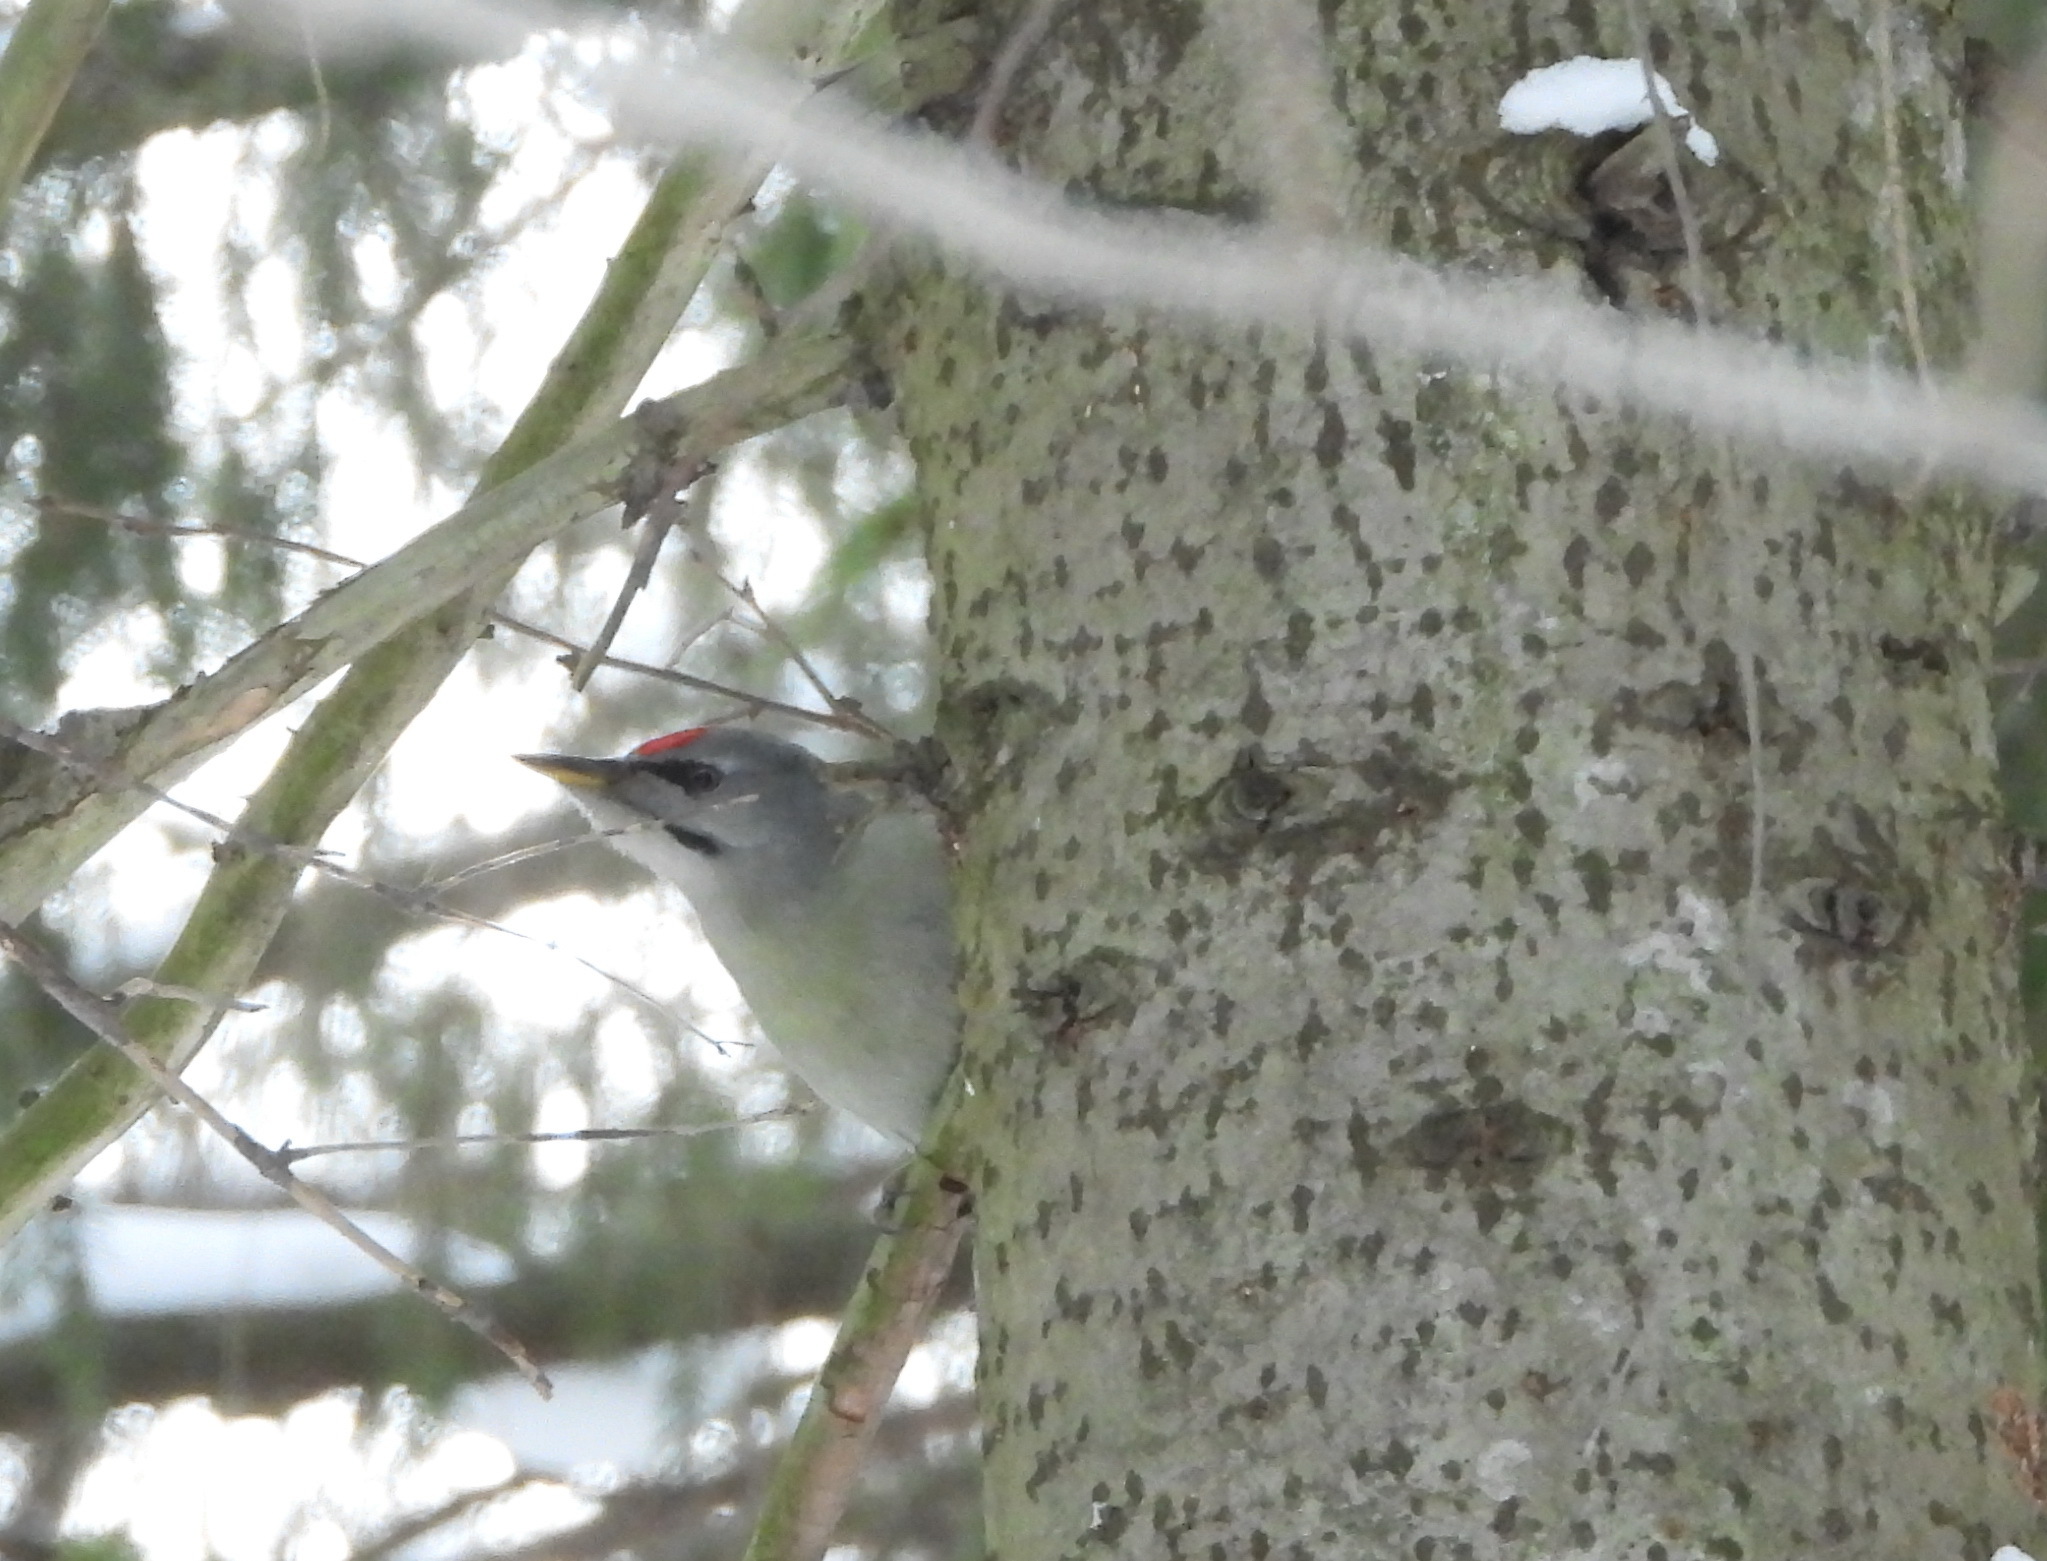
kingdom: Animalia
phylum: Chordata
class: Aves
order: Piciformes
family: Picidae
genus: Picus
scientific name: Picus canus
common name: Grey-headed woodpecker
